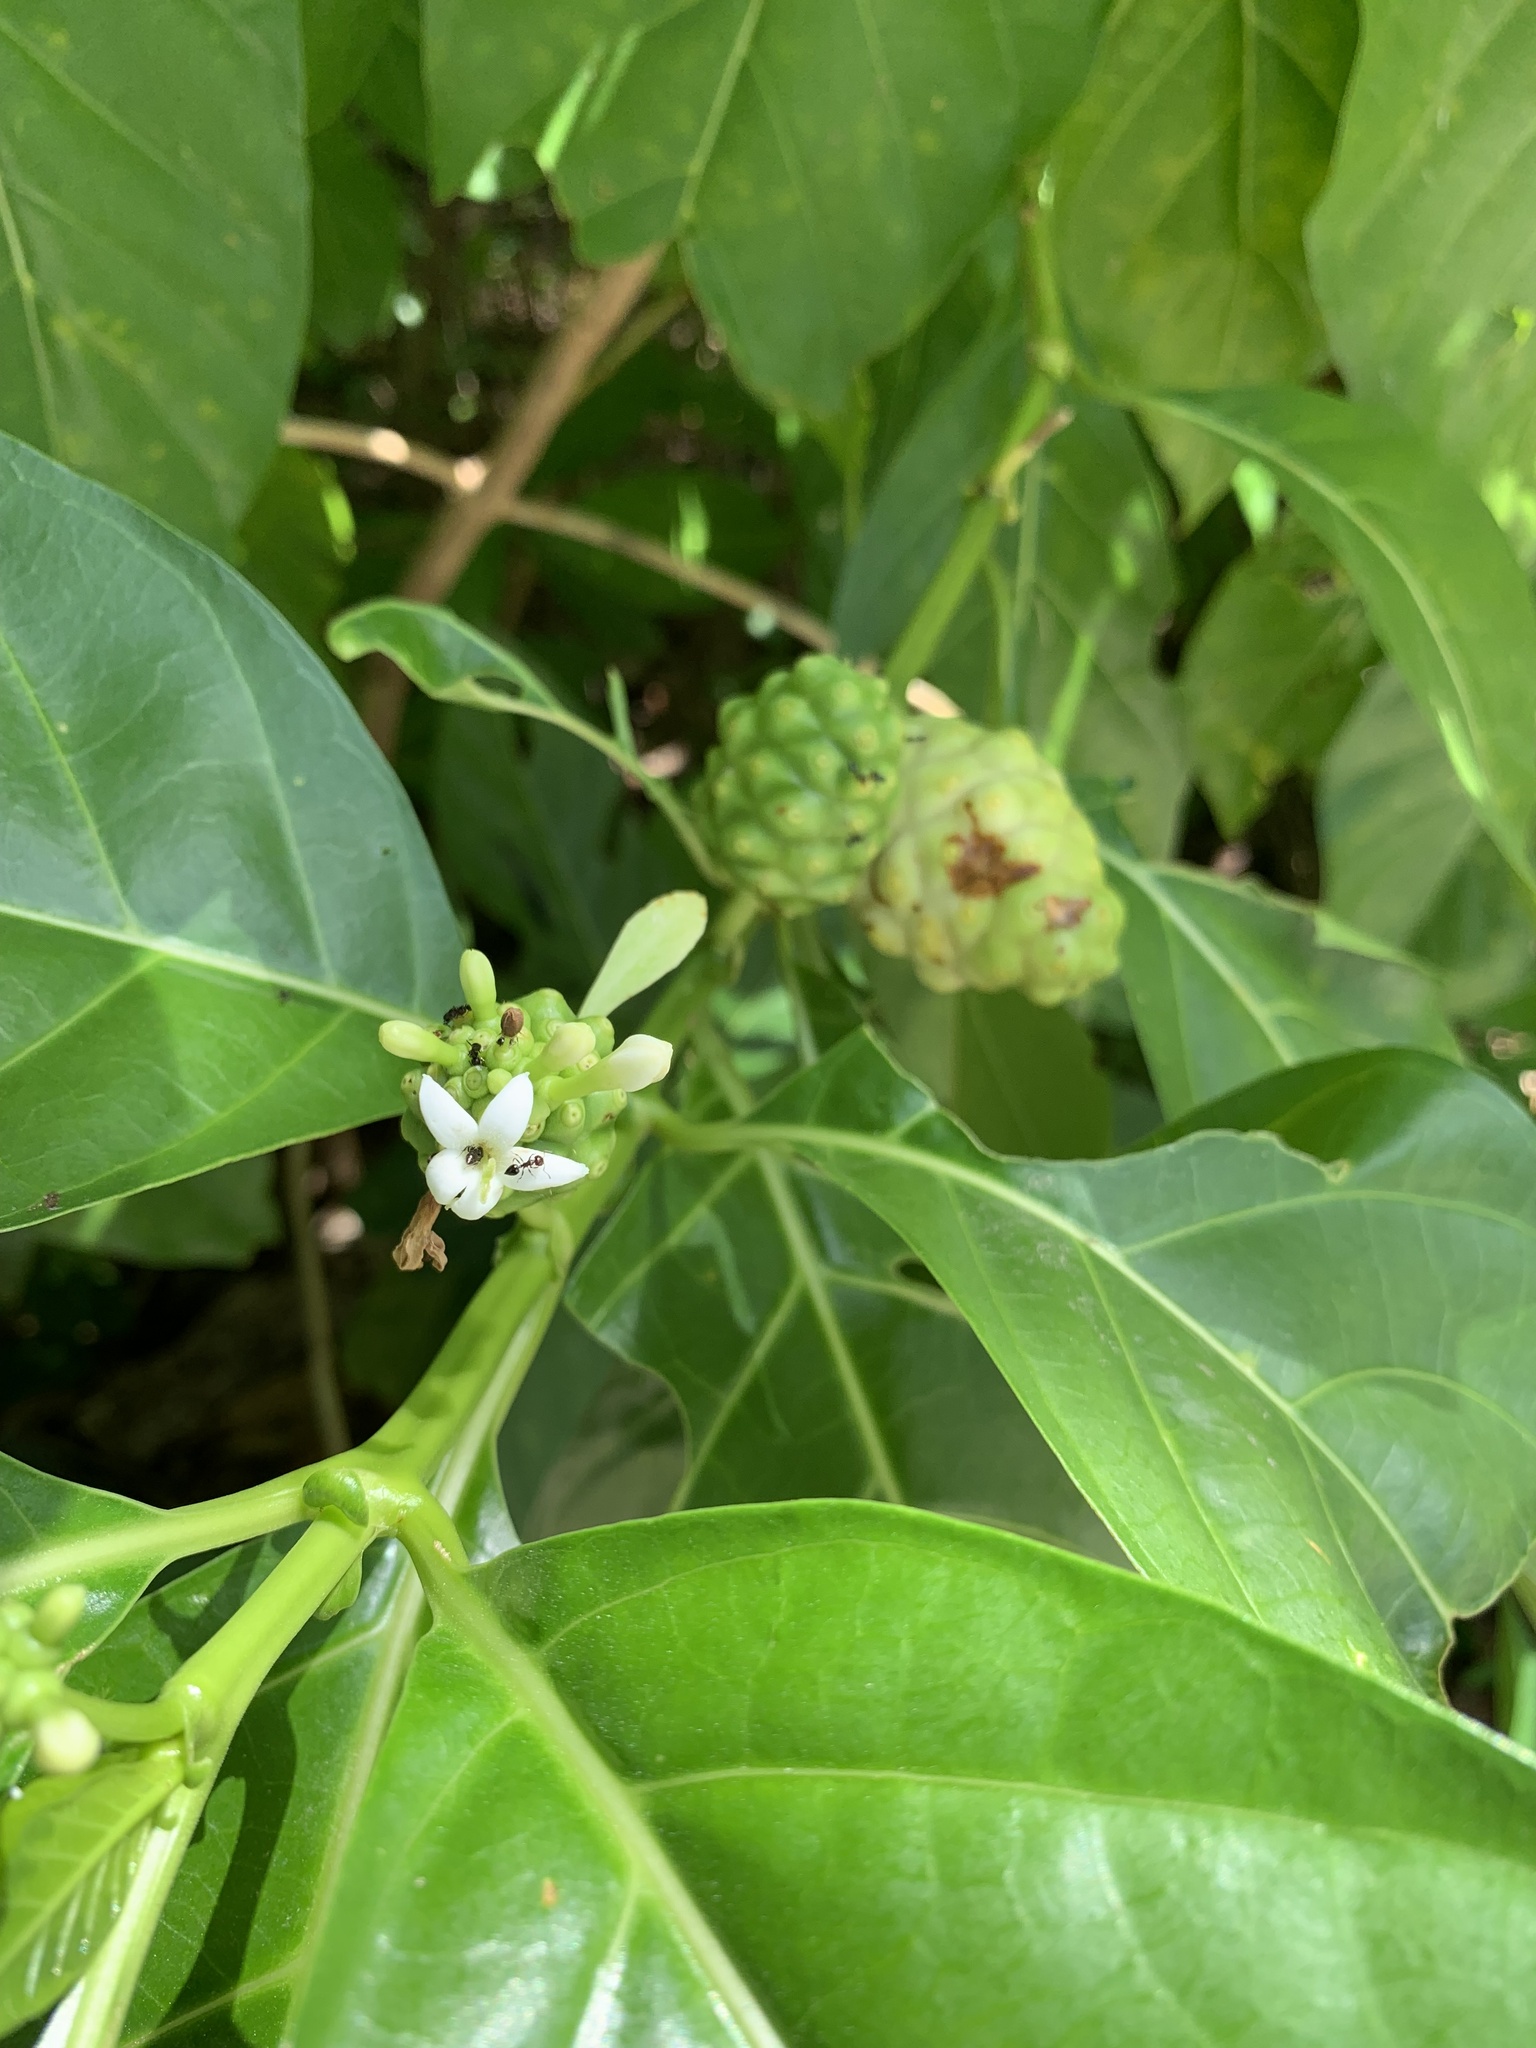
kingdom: Plantae
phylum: Tracheophyta
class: Magnoliopsida
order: Gentianales
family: Rubiaceae
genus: Morinda
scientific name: Morinda citrifolia
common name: Indian-mulberry
